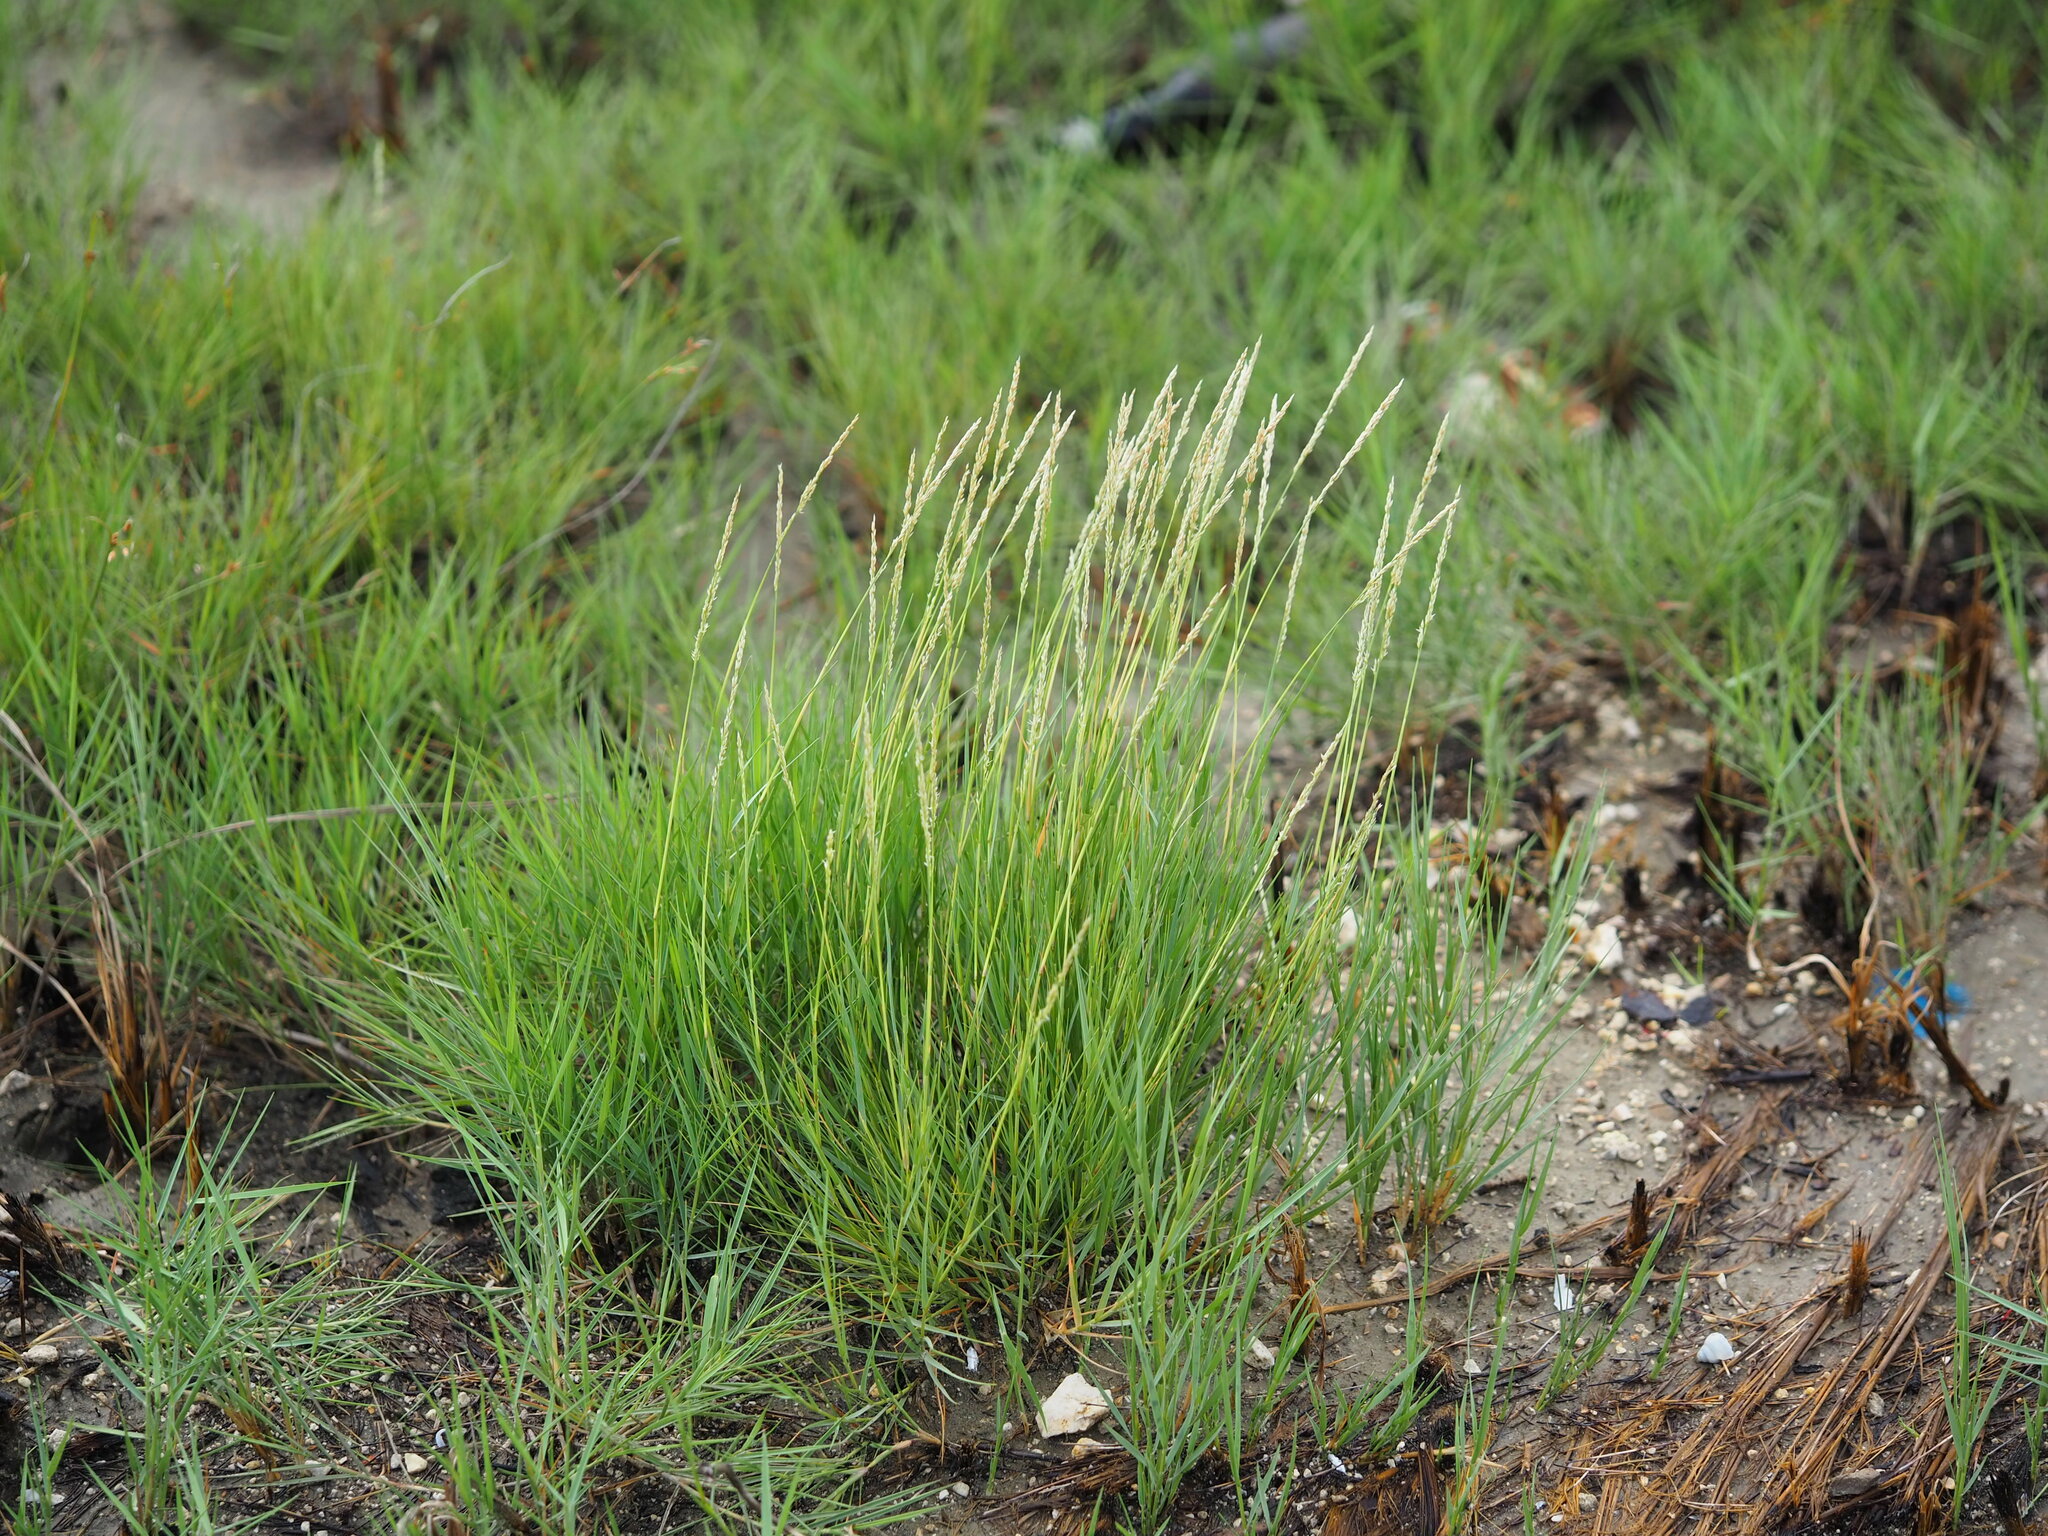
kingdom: Plantae
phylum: Tracheophyta
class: Liliopsida
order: Poales
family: Poaceae
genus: Sporobolus
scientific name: Sporobolus virginicus
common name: Beach dropseed
